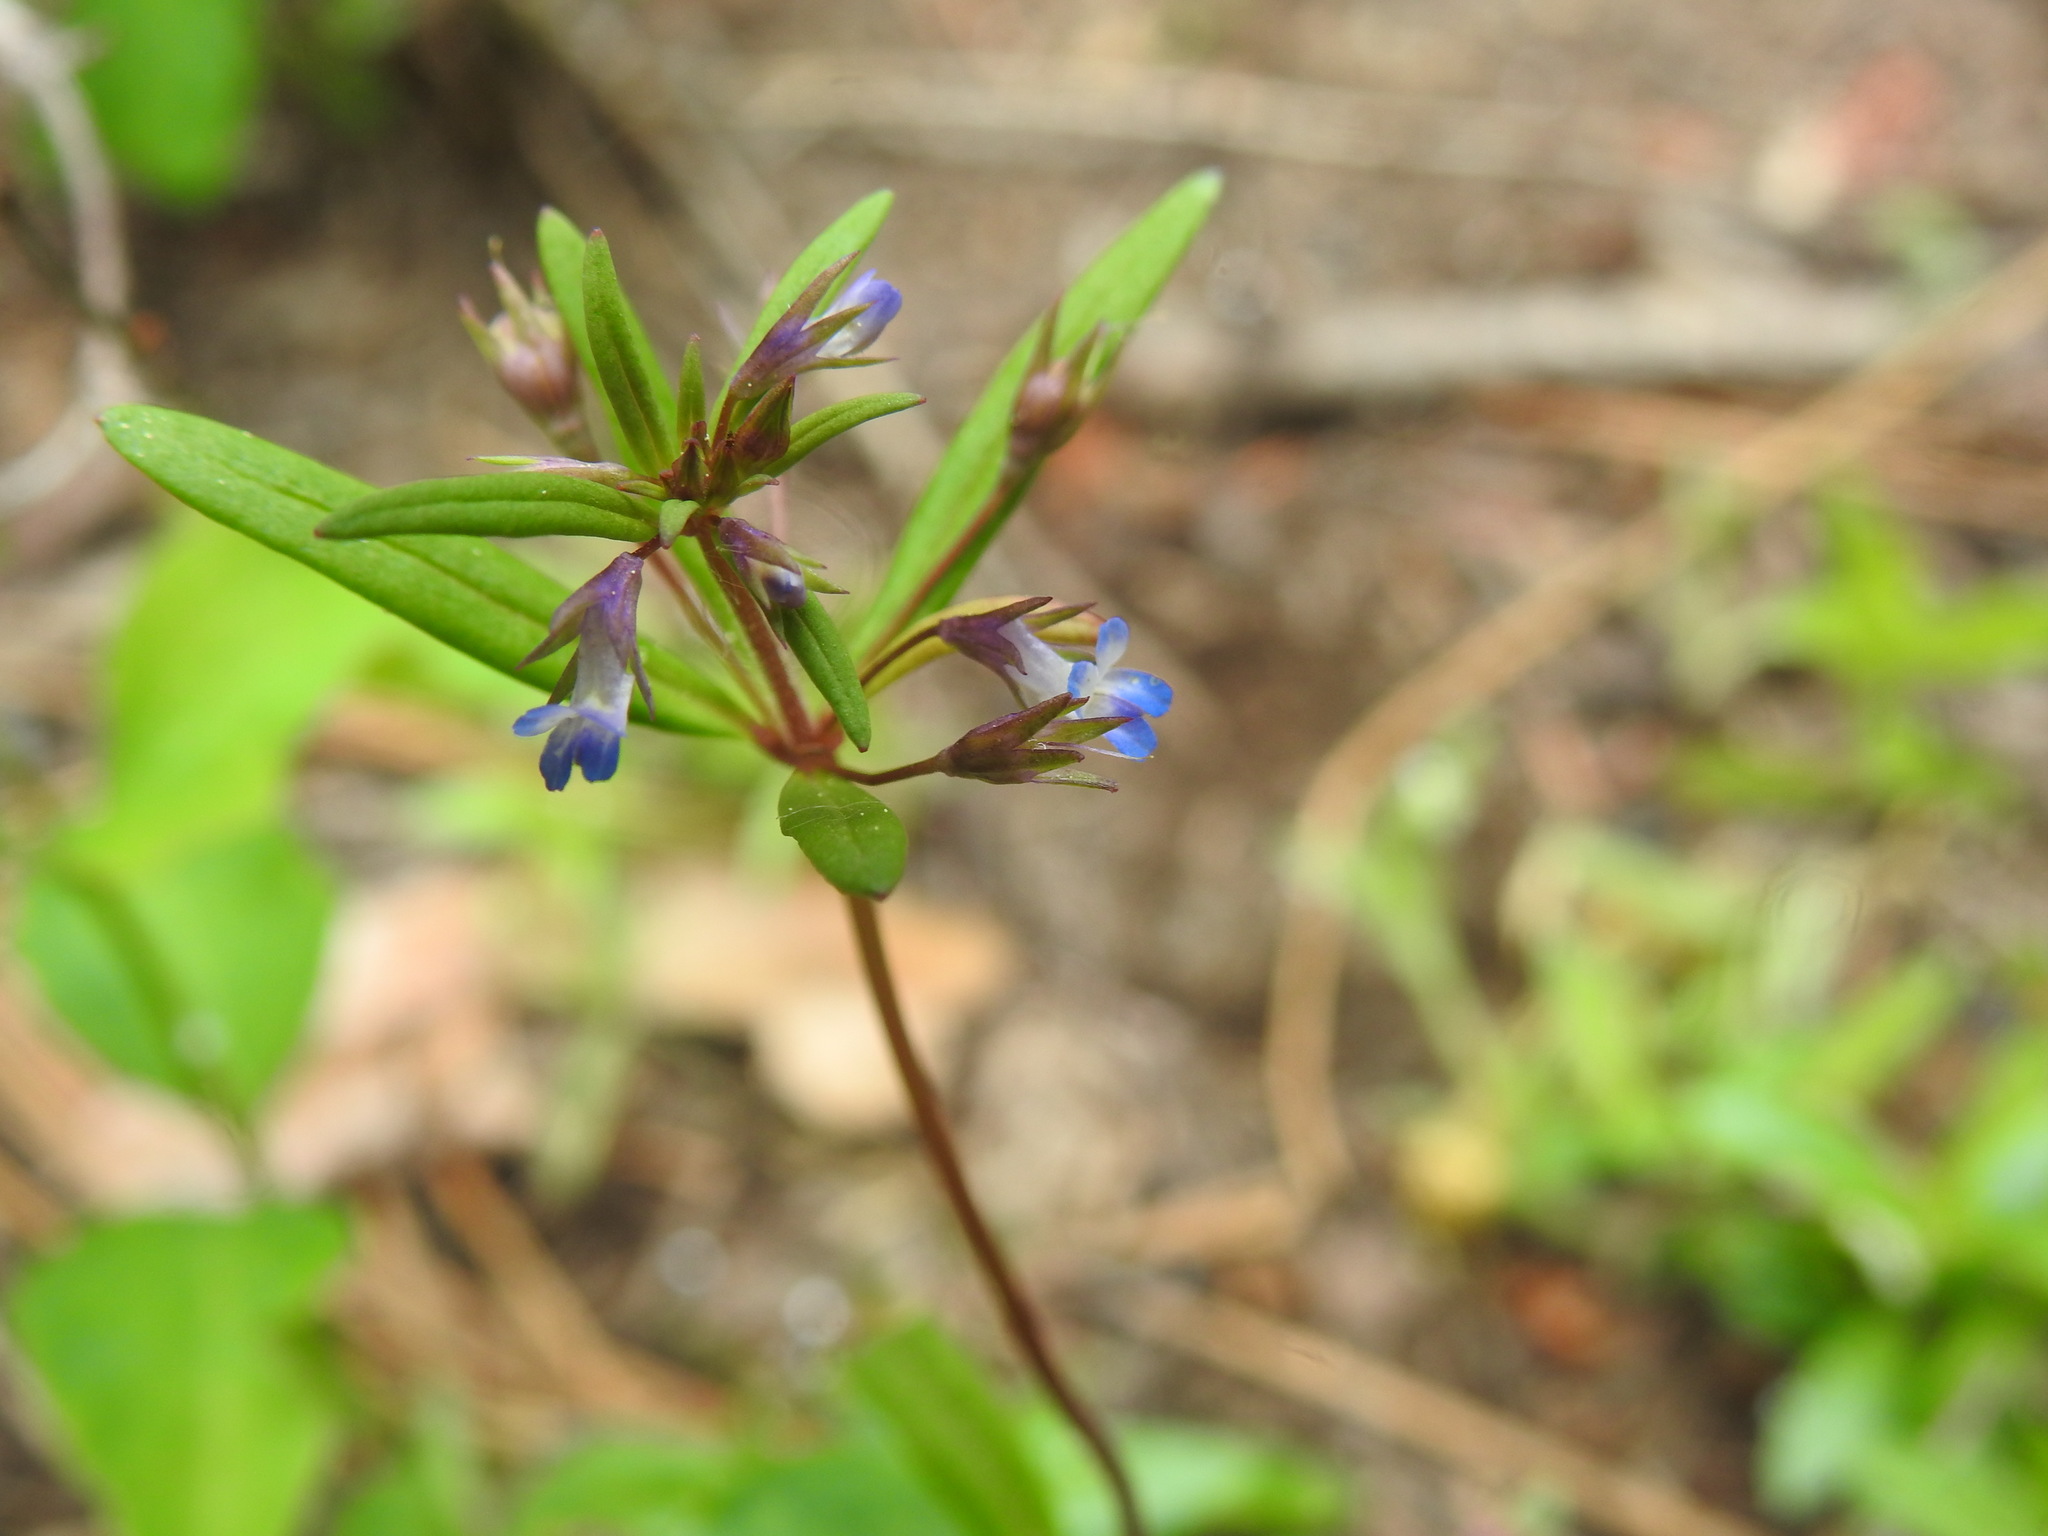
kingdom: Plantae
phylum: Tracheophyta
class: Magnoliopsida
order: Lamiales
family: Plantaginaceae
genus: Collinsia
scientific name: Collinsia parviflora
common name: Blue-lips
